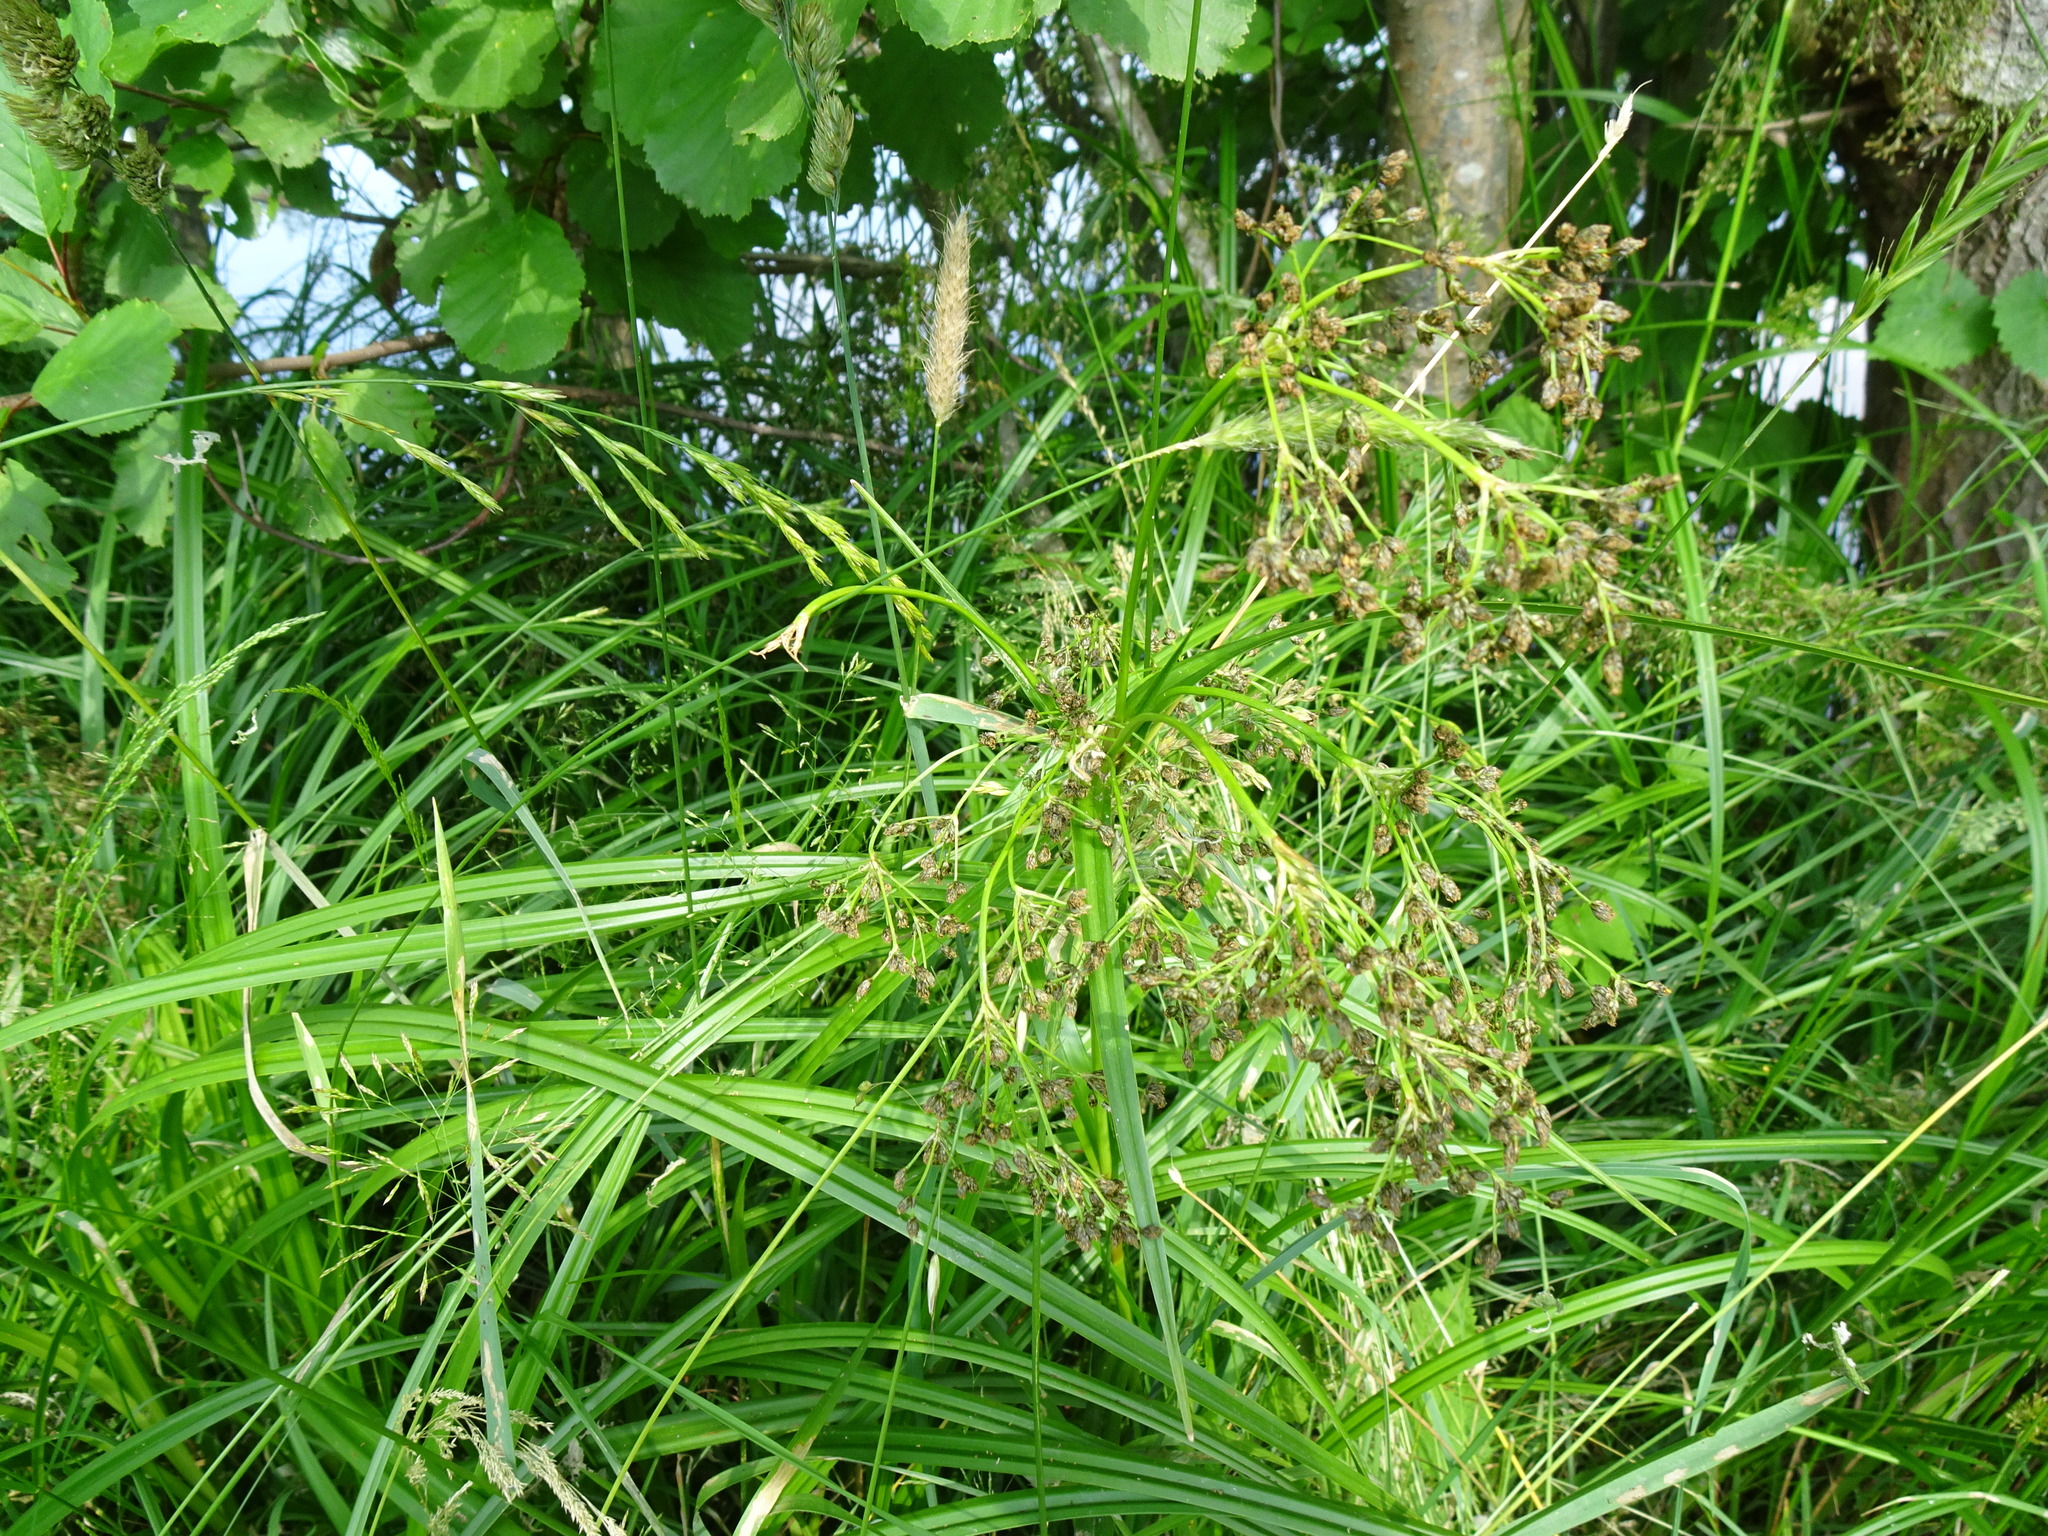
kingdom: Plantae
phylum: Tracheophyta
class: Liliopsida
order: Poales
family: Cyperaceae
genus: Scirpus
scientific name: Scirpus sylvaticus
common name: Wood club-rush
